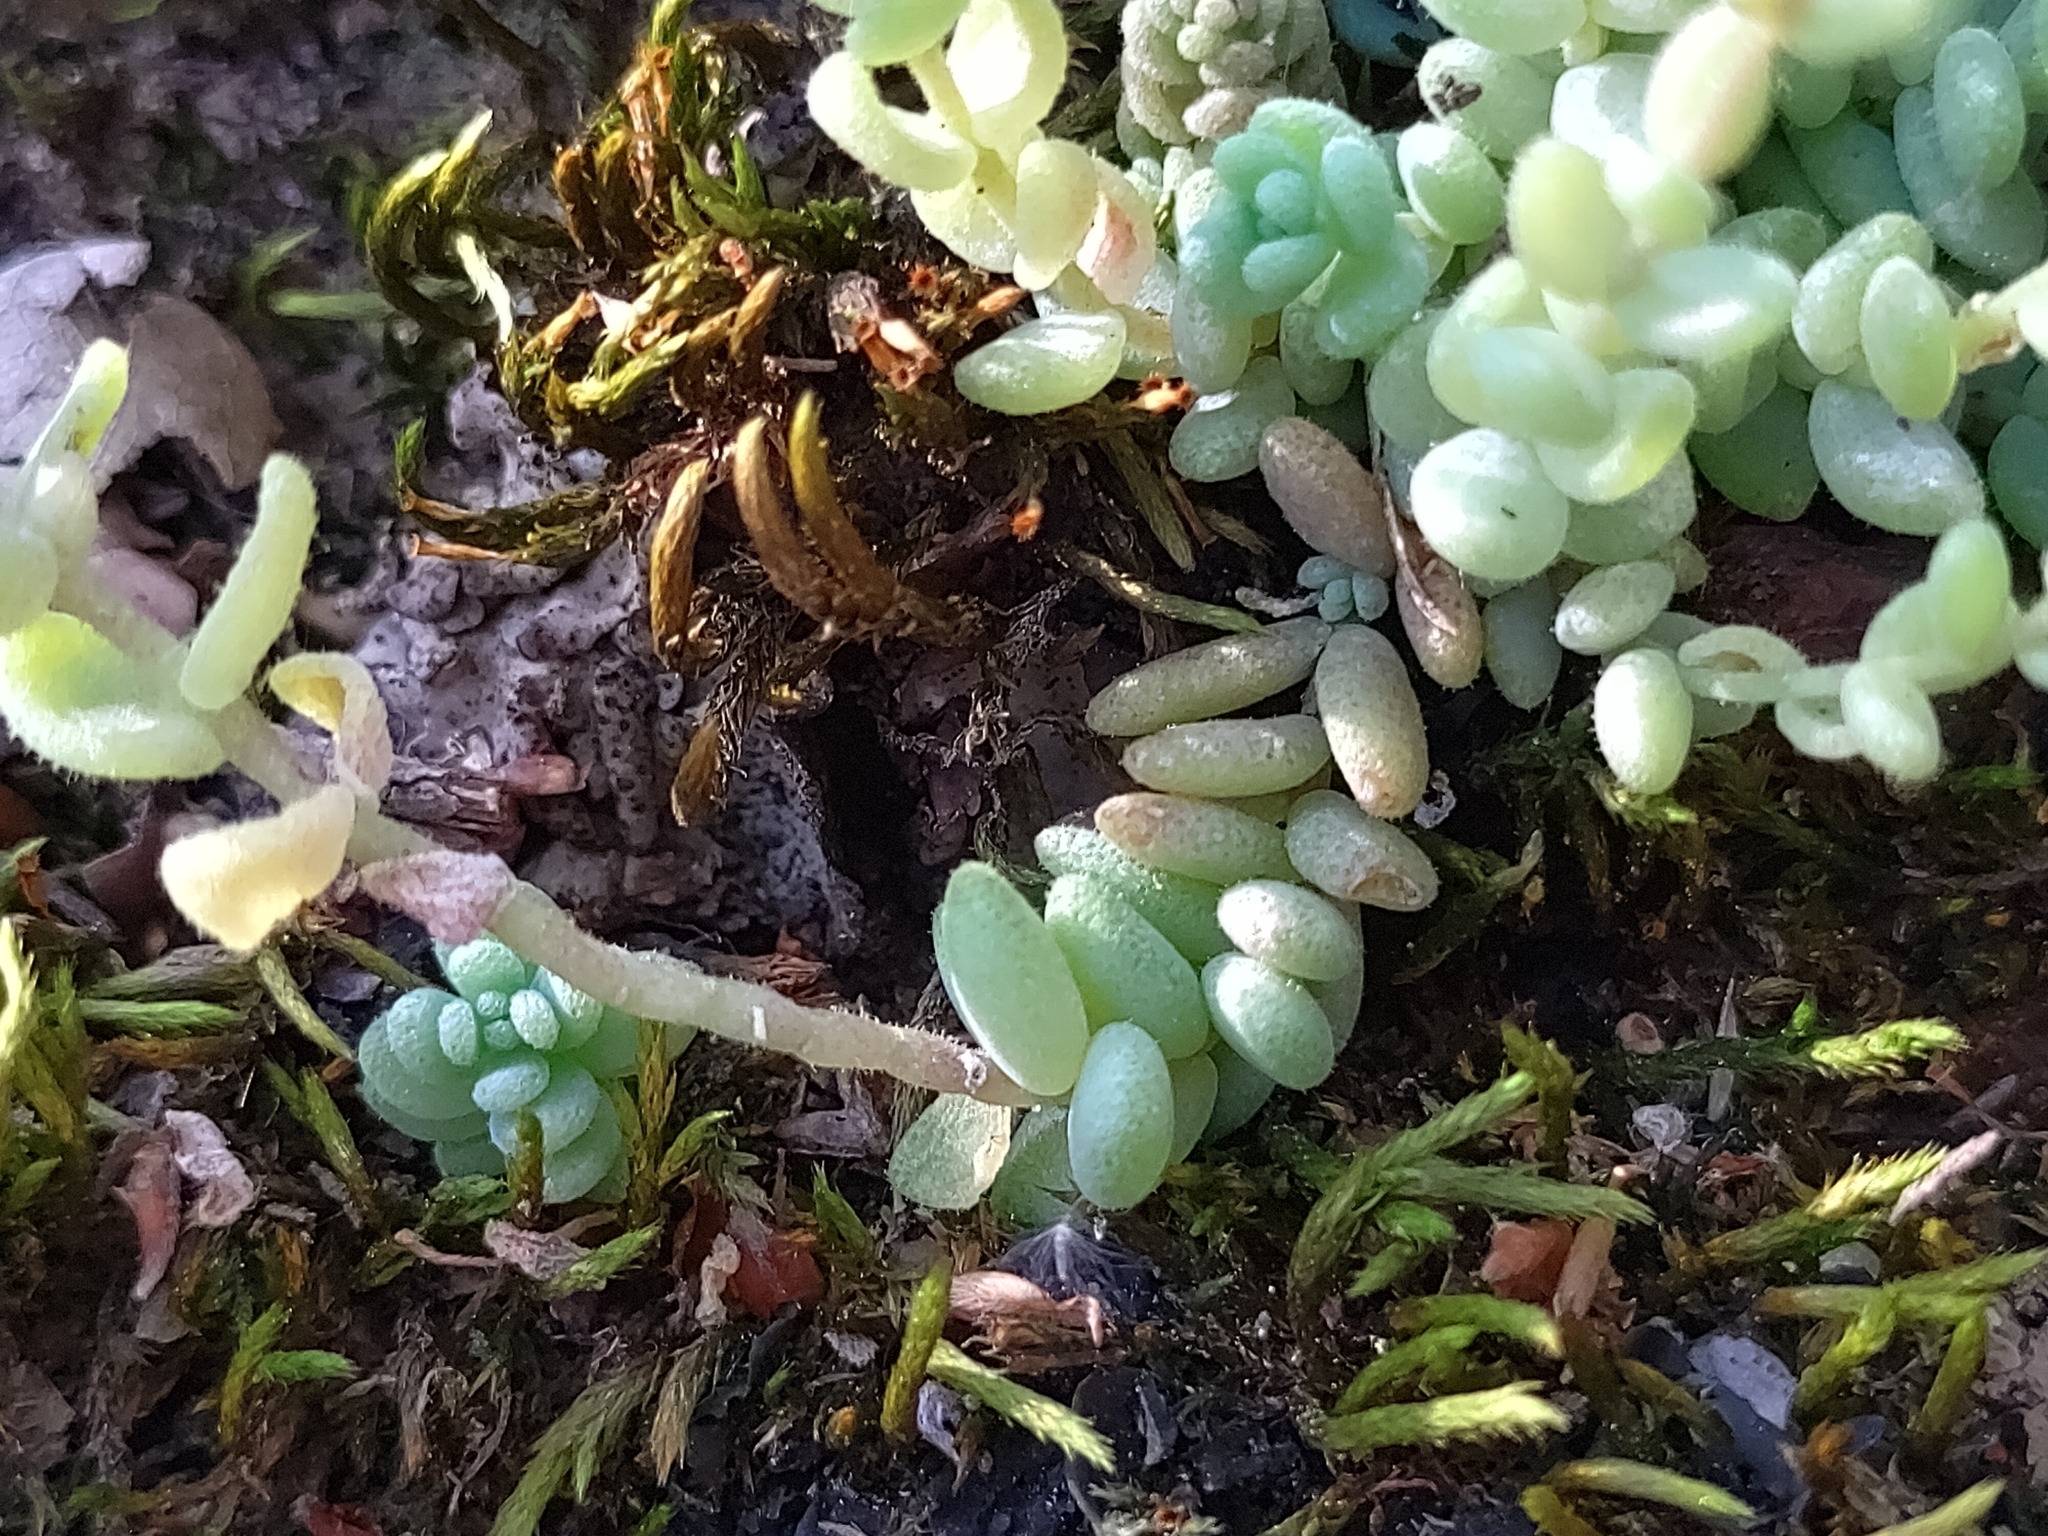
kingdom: Plantae
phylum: Tracheophyta
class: Magnoliopsida
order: Saxifragales
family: Crassulaceae
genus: Sedum
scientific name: Sedum dasyphyllum
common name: Thick-leaf stonecrop
